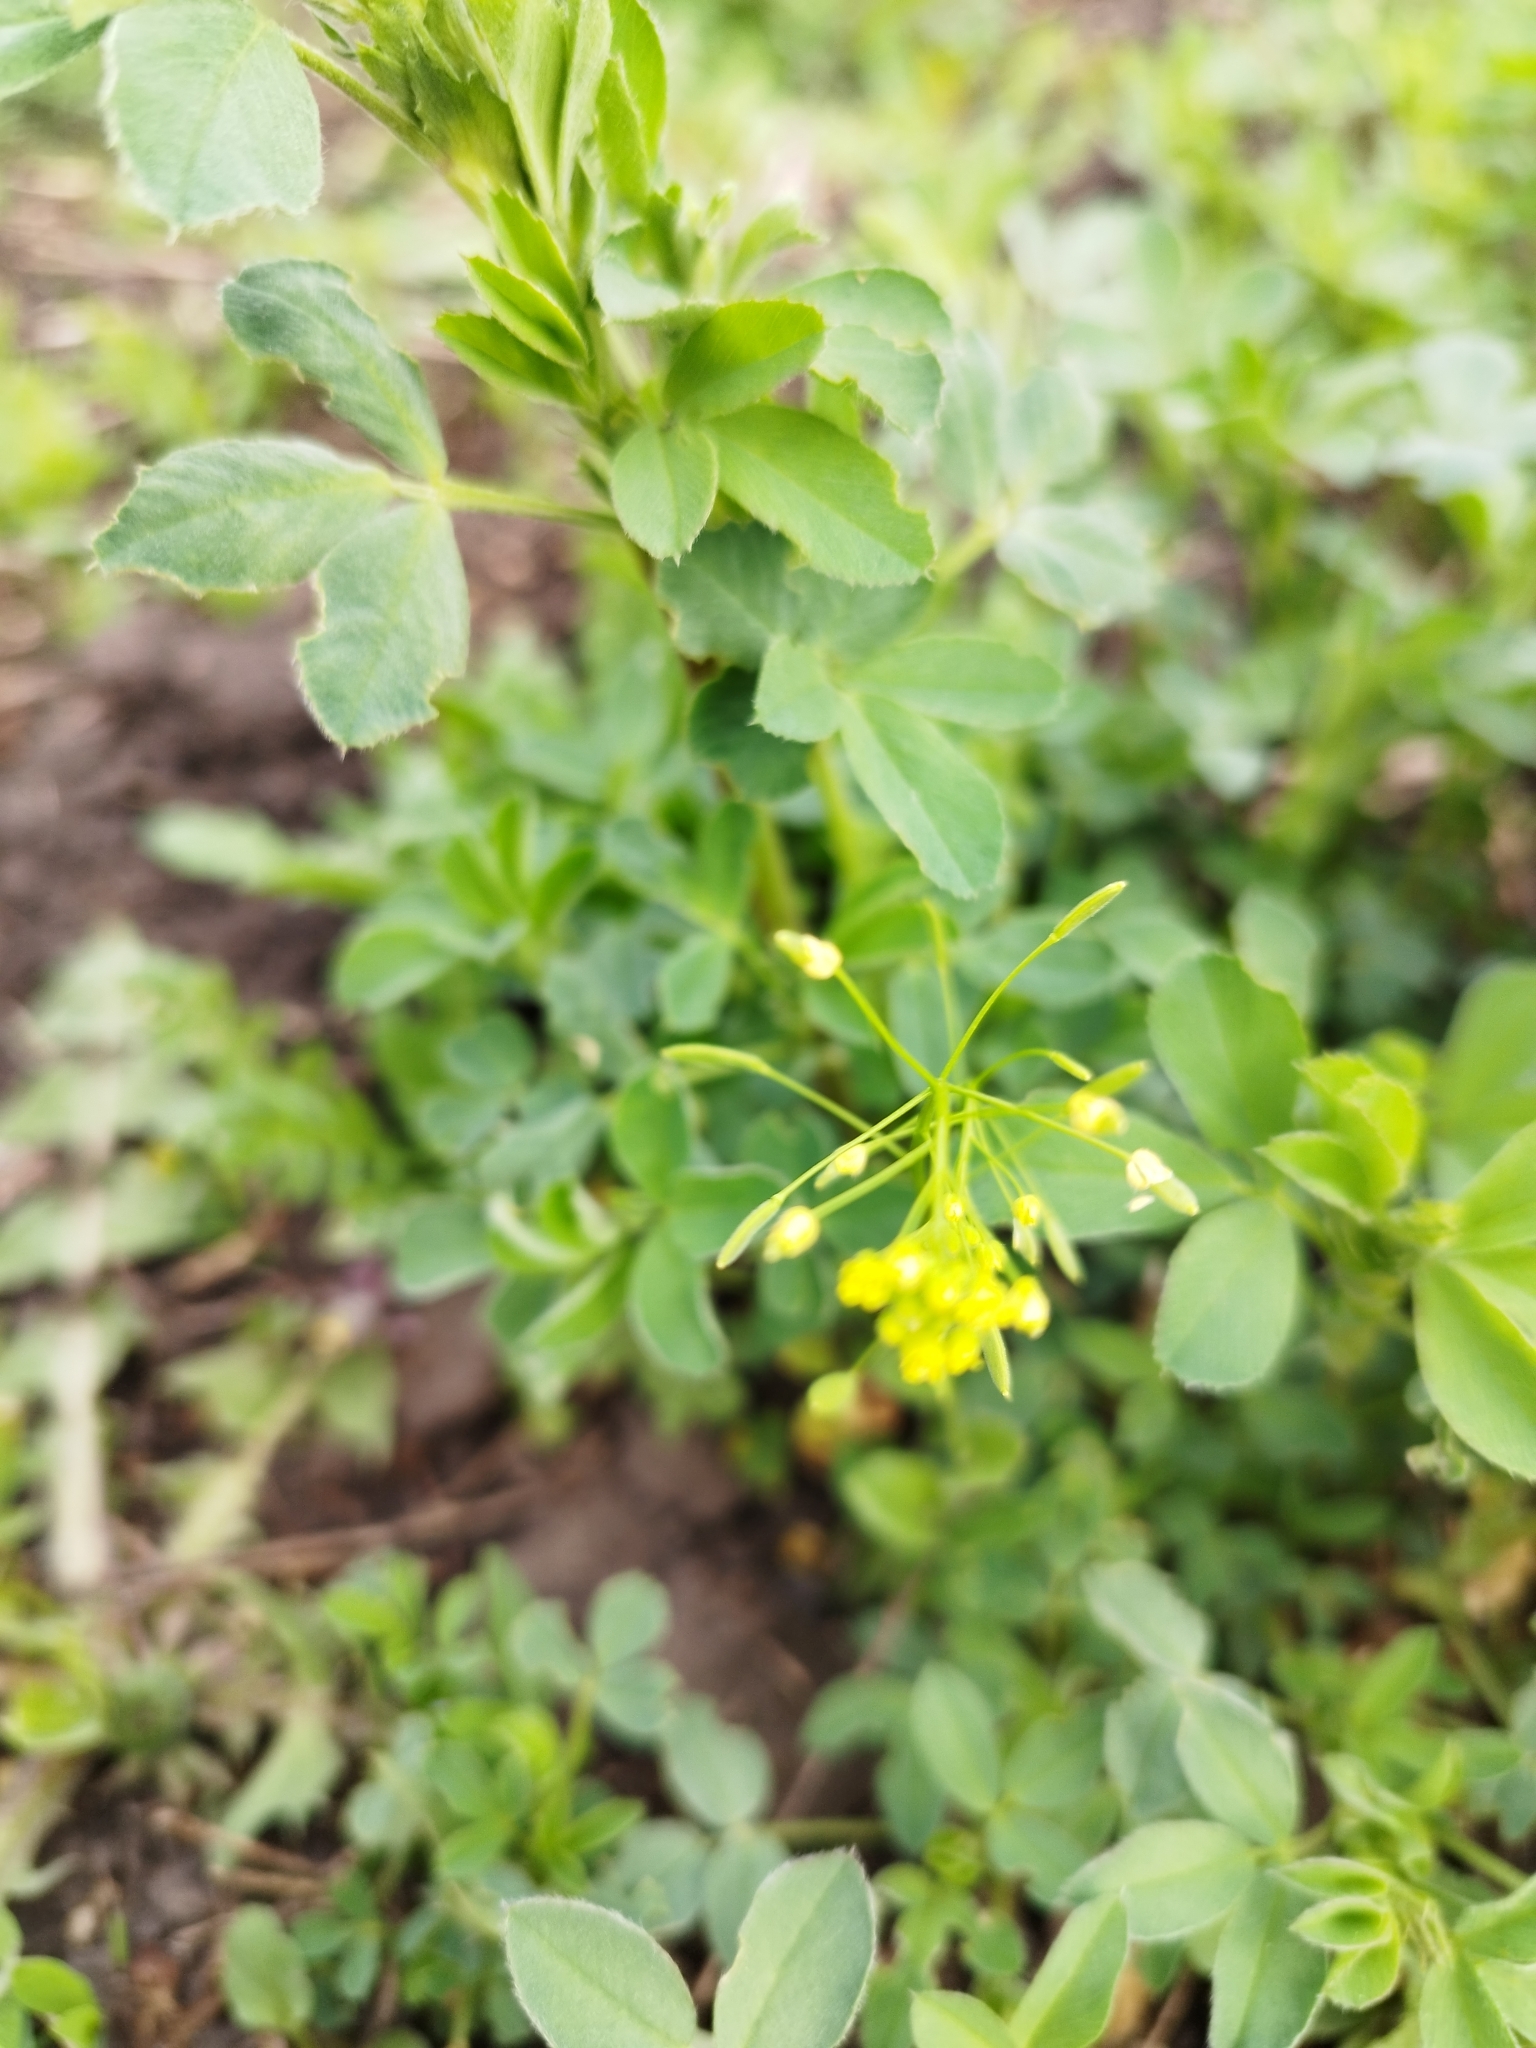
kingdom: Plantae
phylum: Tracheophyta
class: Magnoliopsida
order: Brassicales
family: Brassicaceae
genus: Draba
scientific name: Draba nemorosa
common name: Wood whitlow-grass
